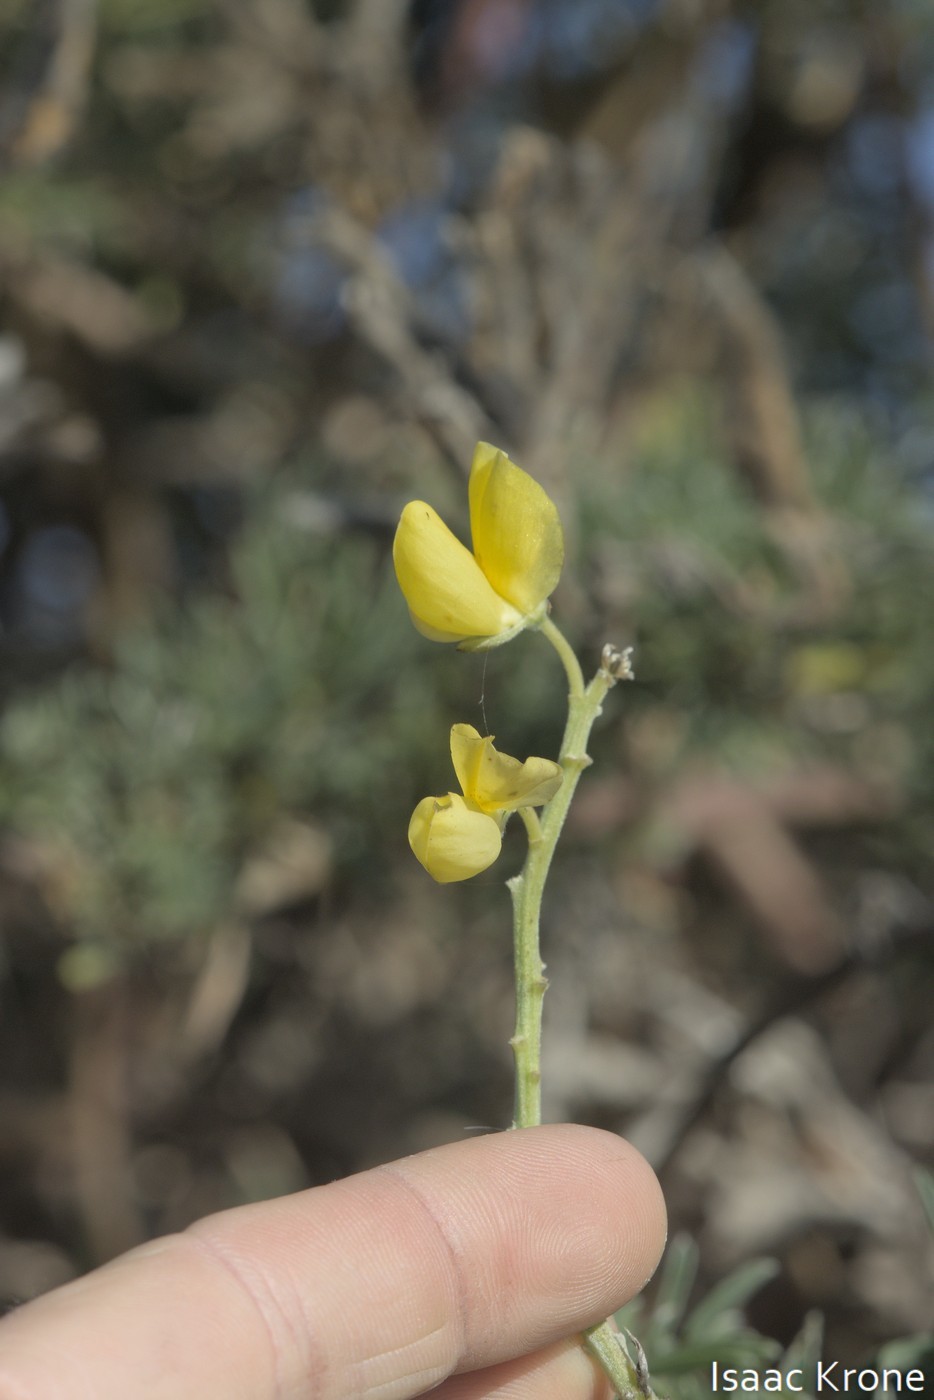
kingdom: Plantae
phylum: Tracheophyta
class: Magnoliopsida
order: Fabales
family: Fabaceae
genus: Lupinus
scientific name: Lupinus arboreus
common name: Yellow bush lupine
